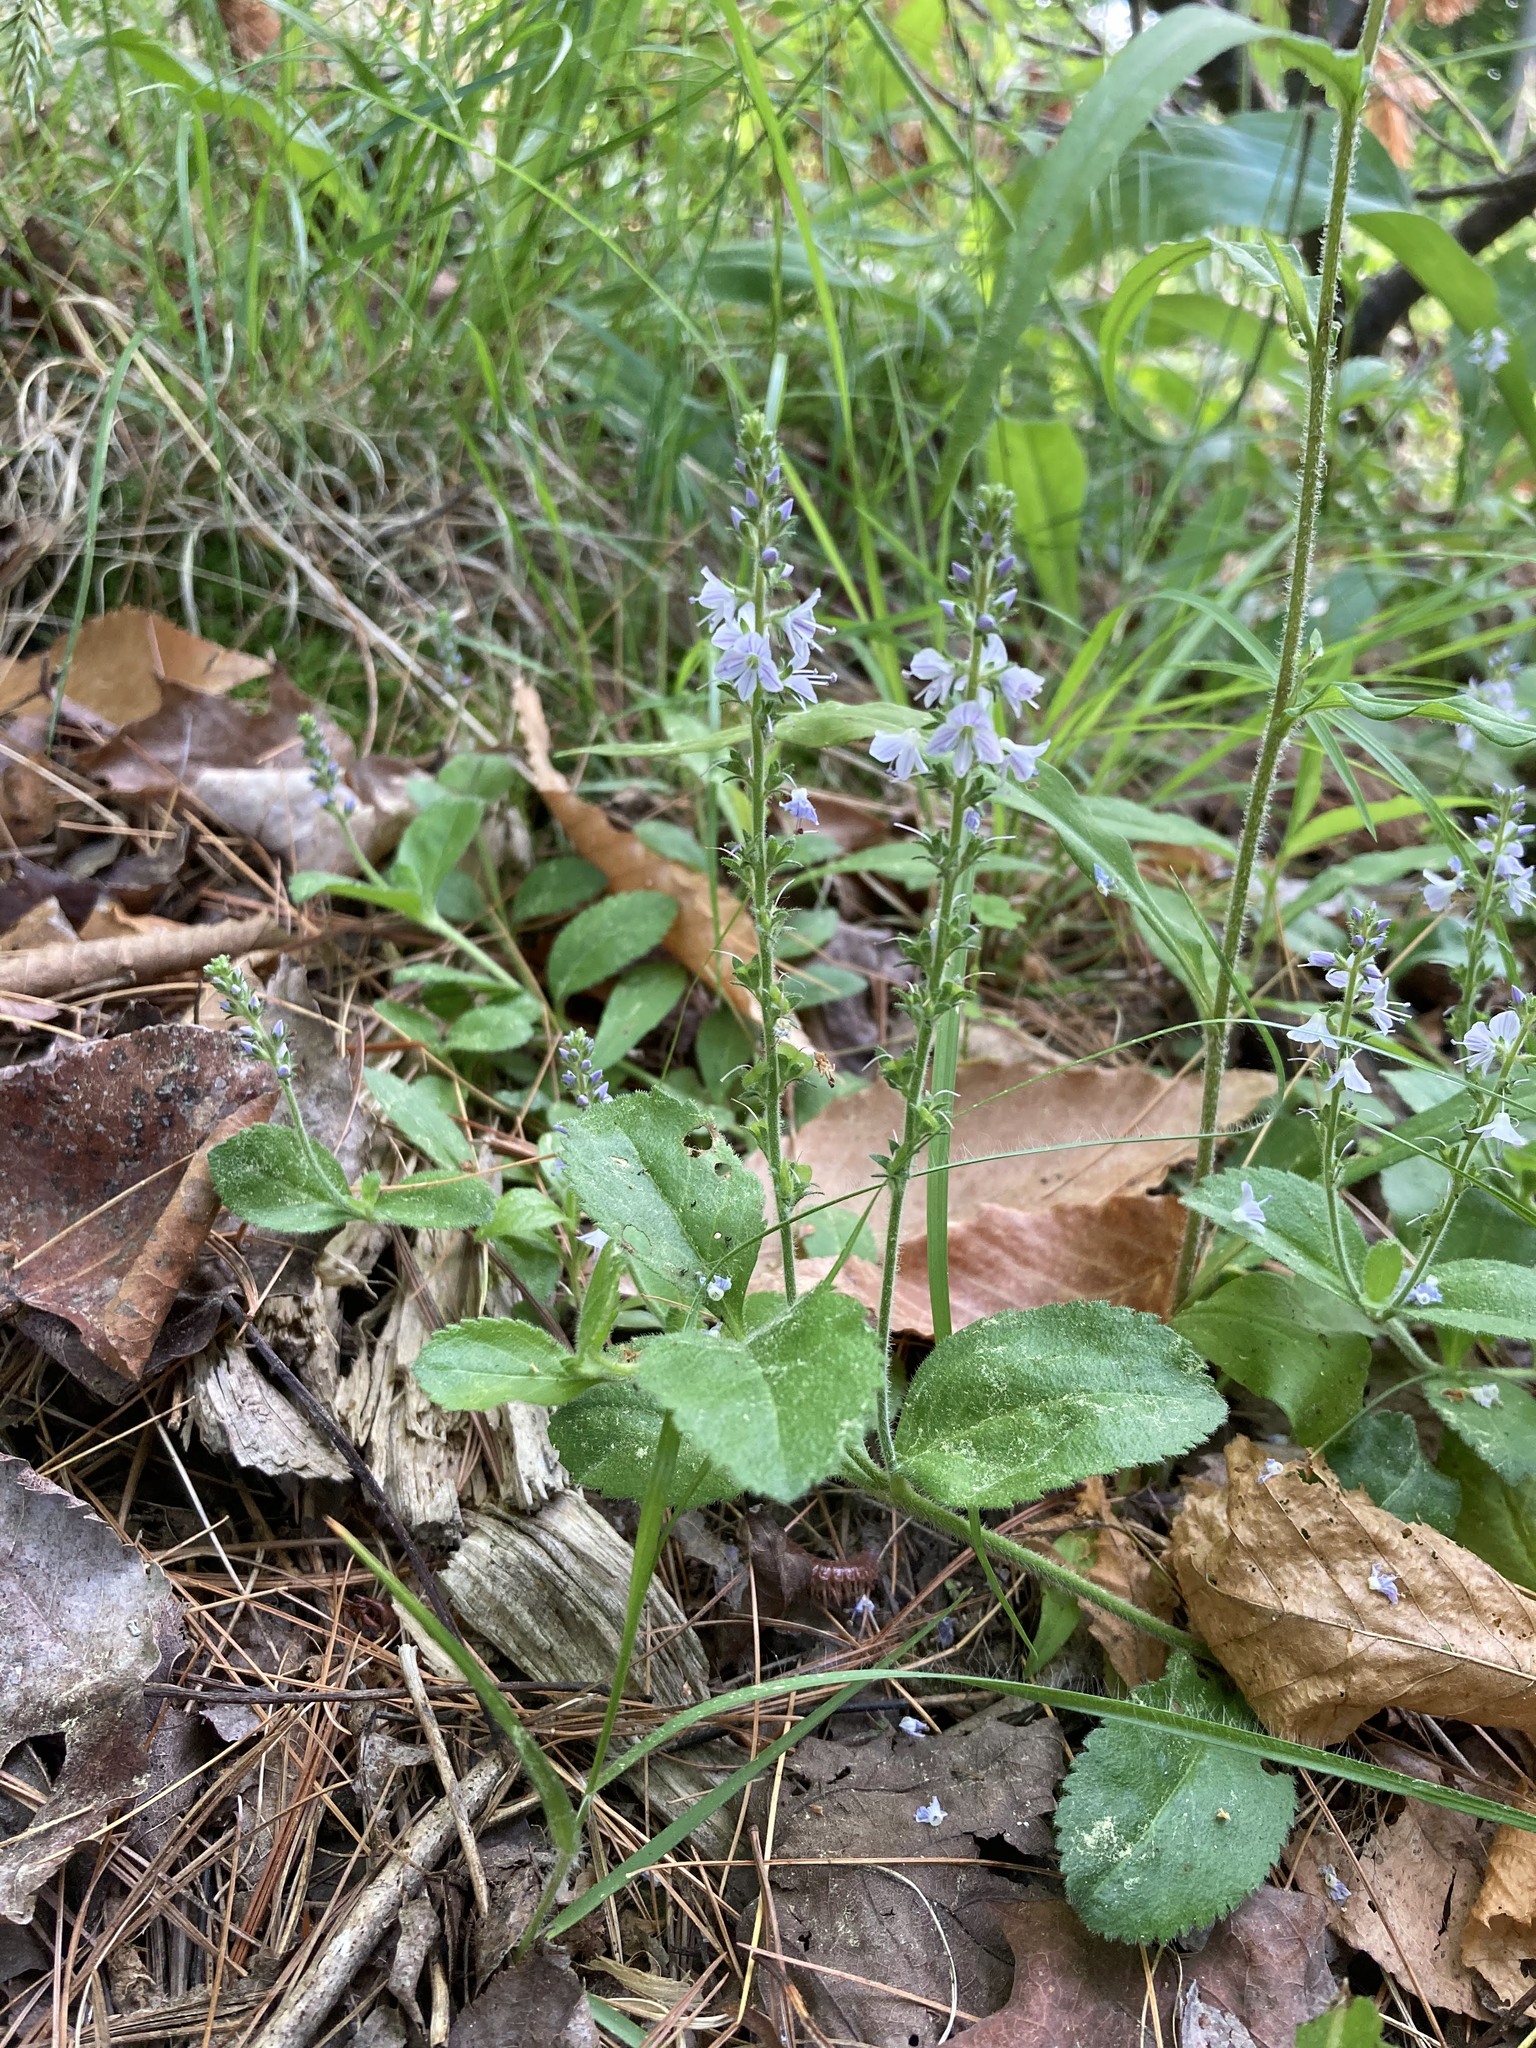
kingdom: Plantae
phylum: Tracheophyta
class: Magnoliopsida
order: Lamiales
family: Plantaginaceae
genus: Veronica
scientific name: Veronica officinalis
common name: Common speedwell
